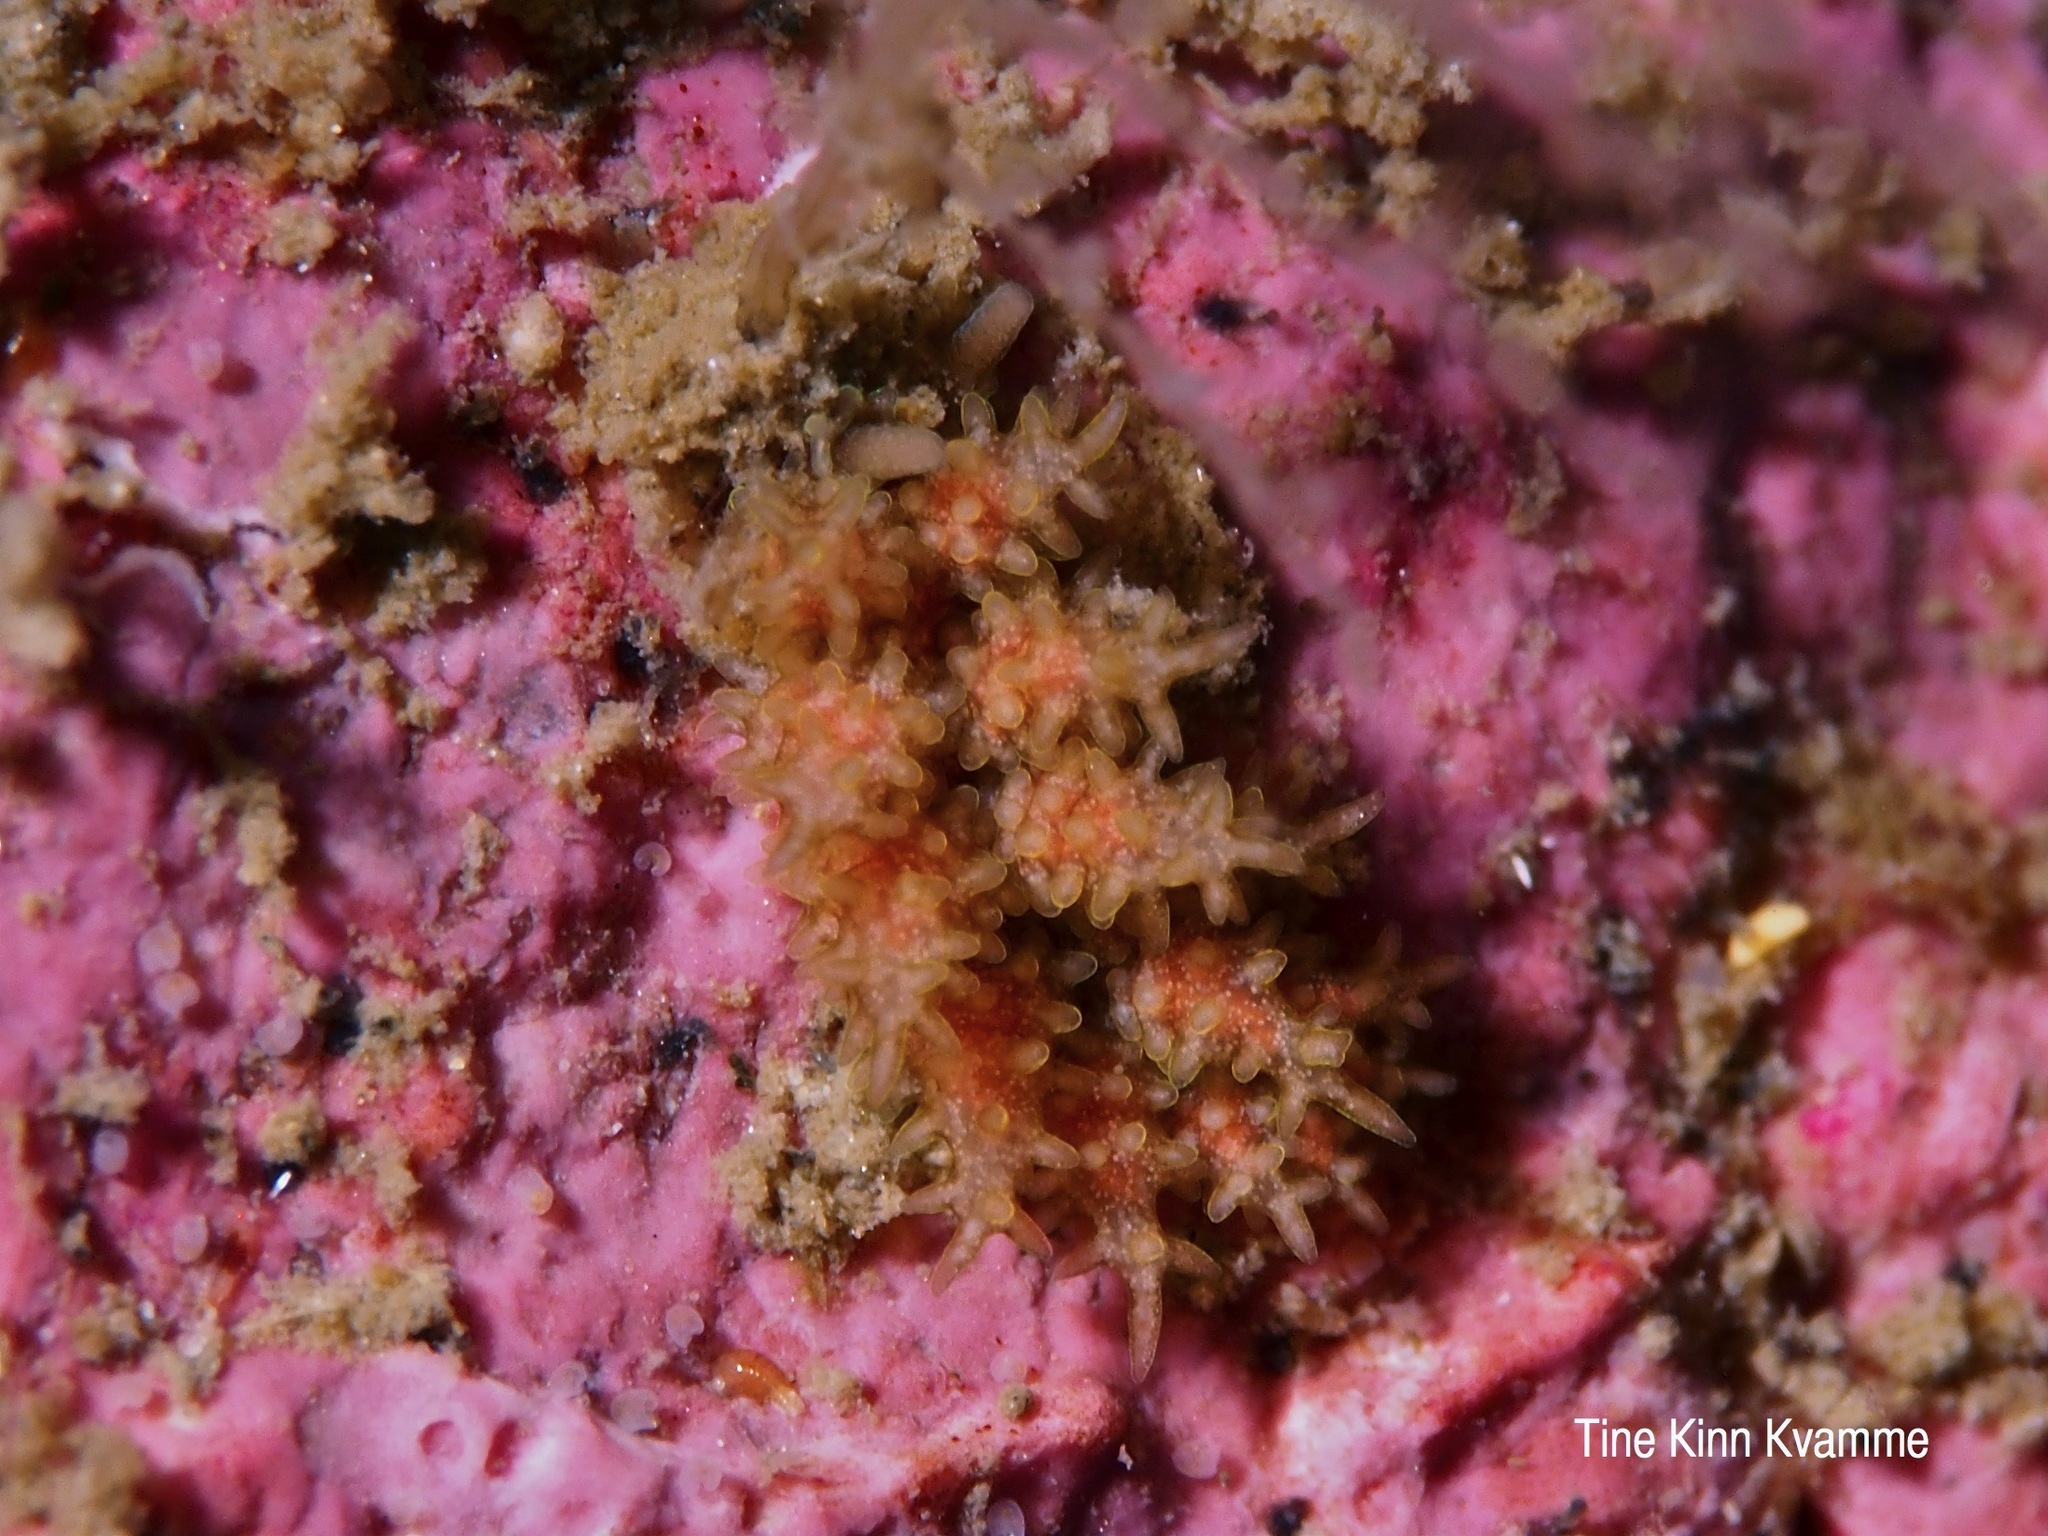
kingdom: Animalia
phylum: Mollusca
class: Gastropoda
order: Nudibranchia
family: Dotidae
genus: Doto
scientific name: Doto hystrix
